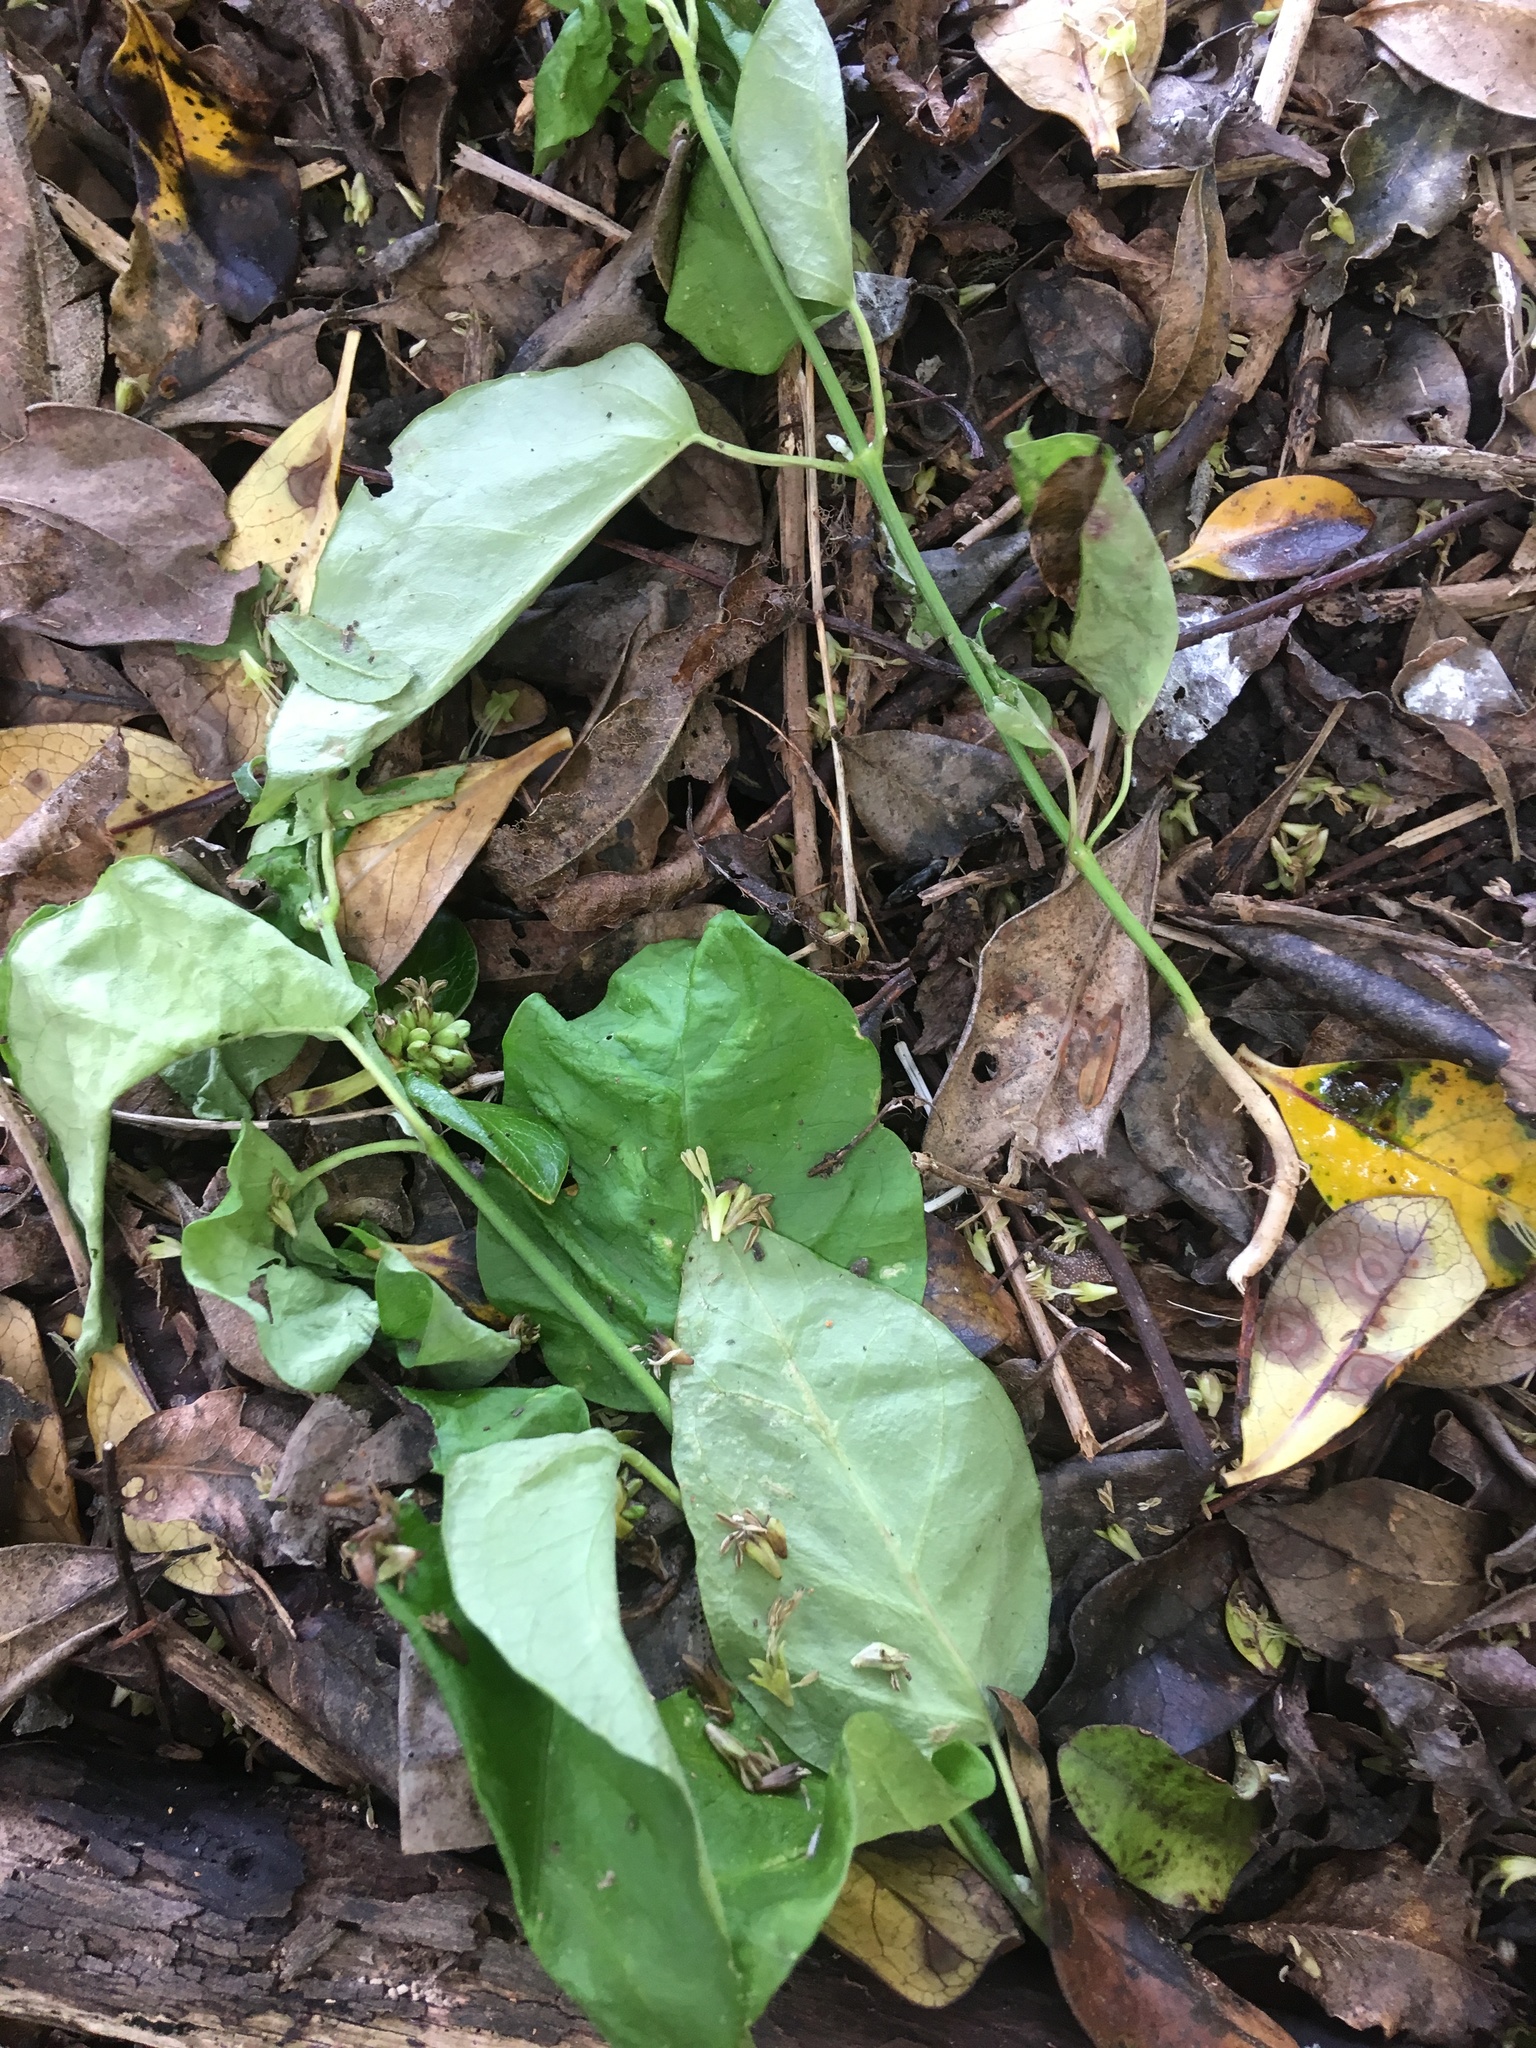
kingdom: Plantae
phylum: Tracheophyta
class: Magnoliopsida
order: Gentianales
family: Apocynaceae
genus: Araujia
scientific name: Araujia sericifera
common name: White bladderflower
